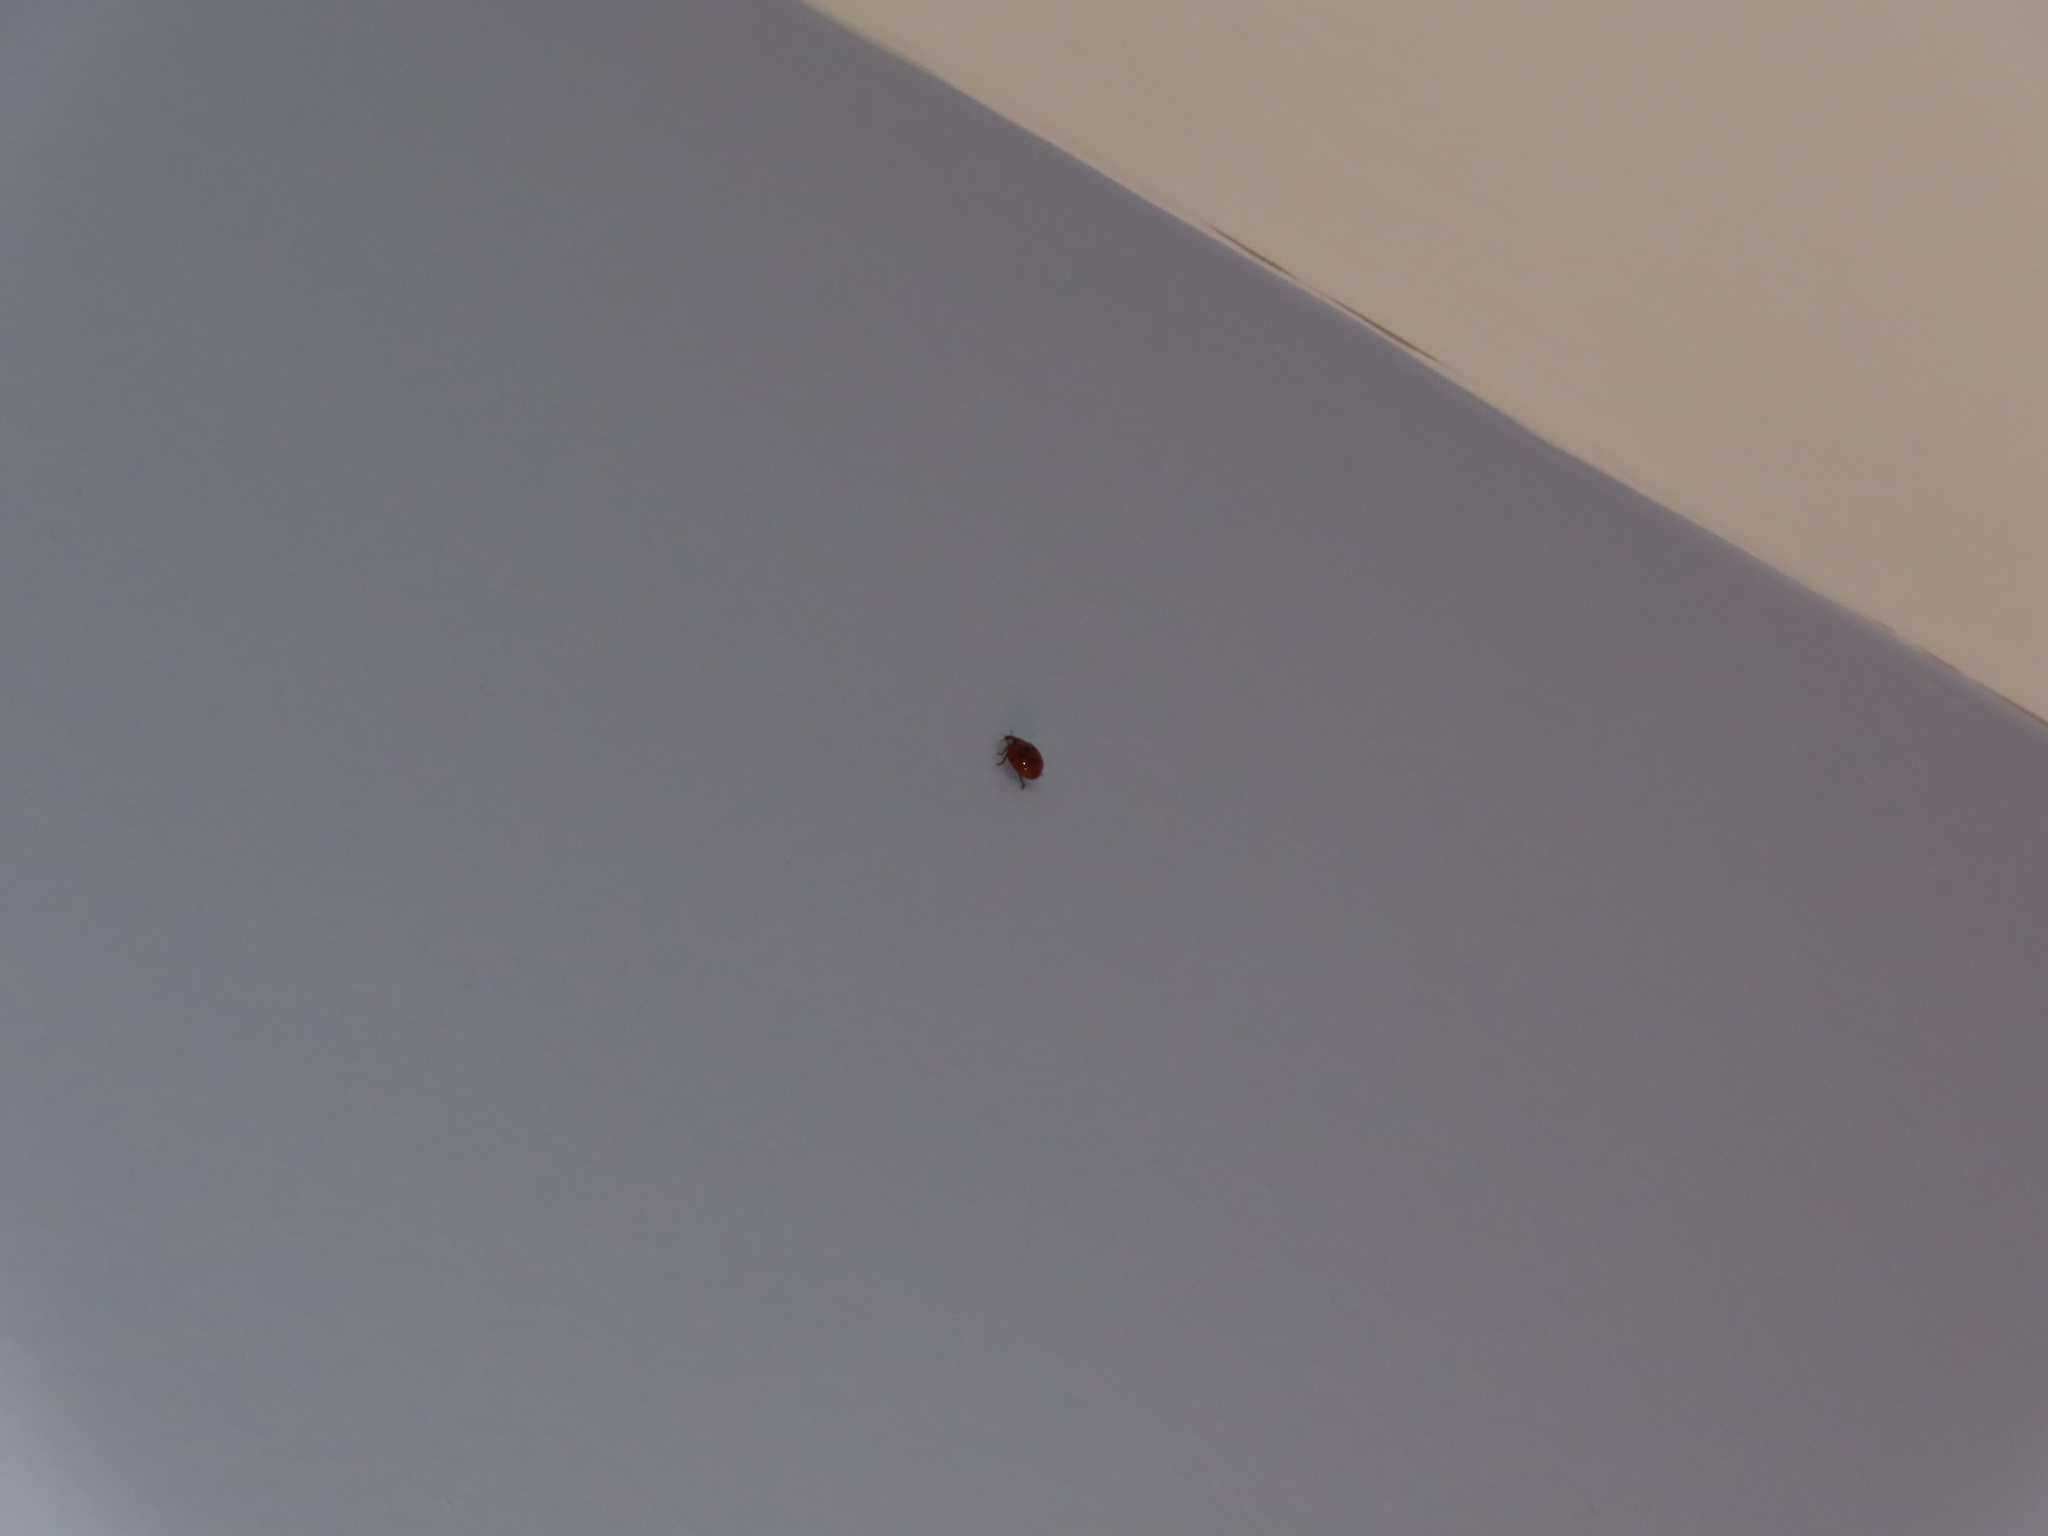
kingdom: Animalia
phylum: Arthropoda
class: Insecta
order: Coleoptera
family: Coccinellidae
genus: Harmonia
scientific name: Harmonia axyridis
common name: Harlequin ladybird
